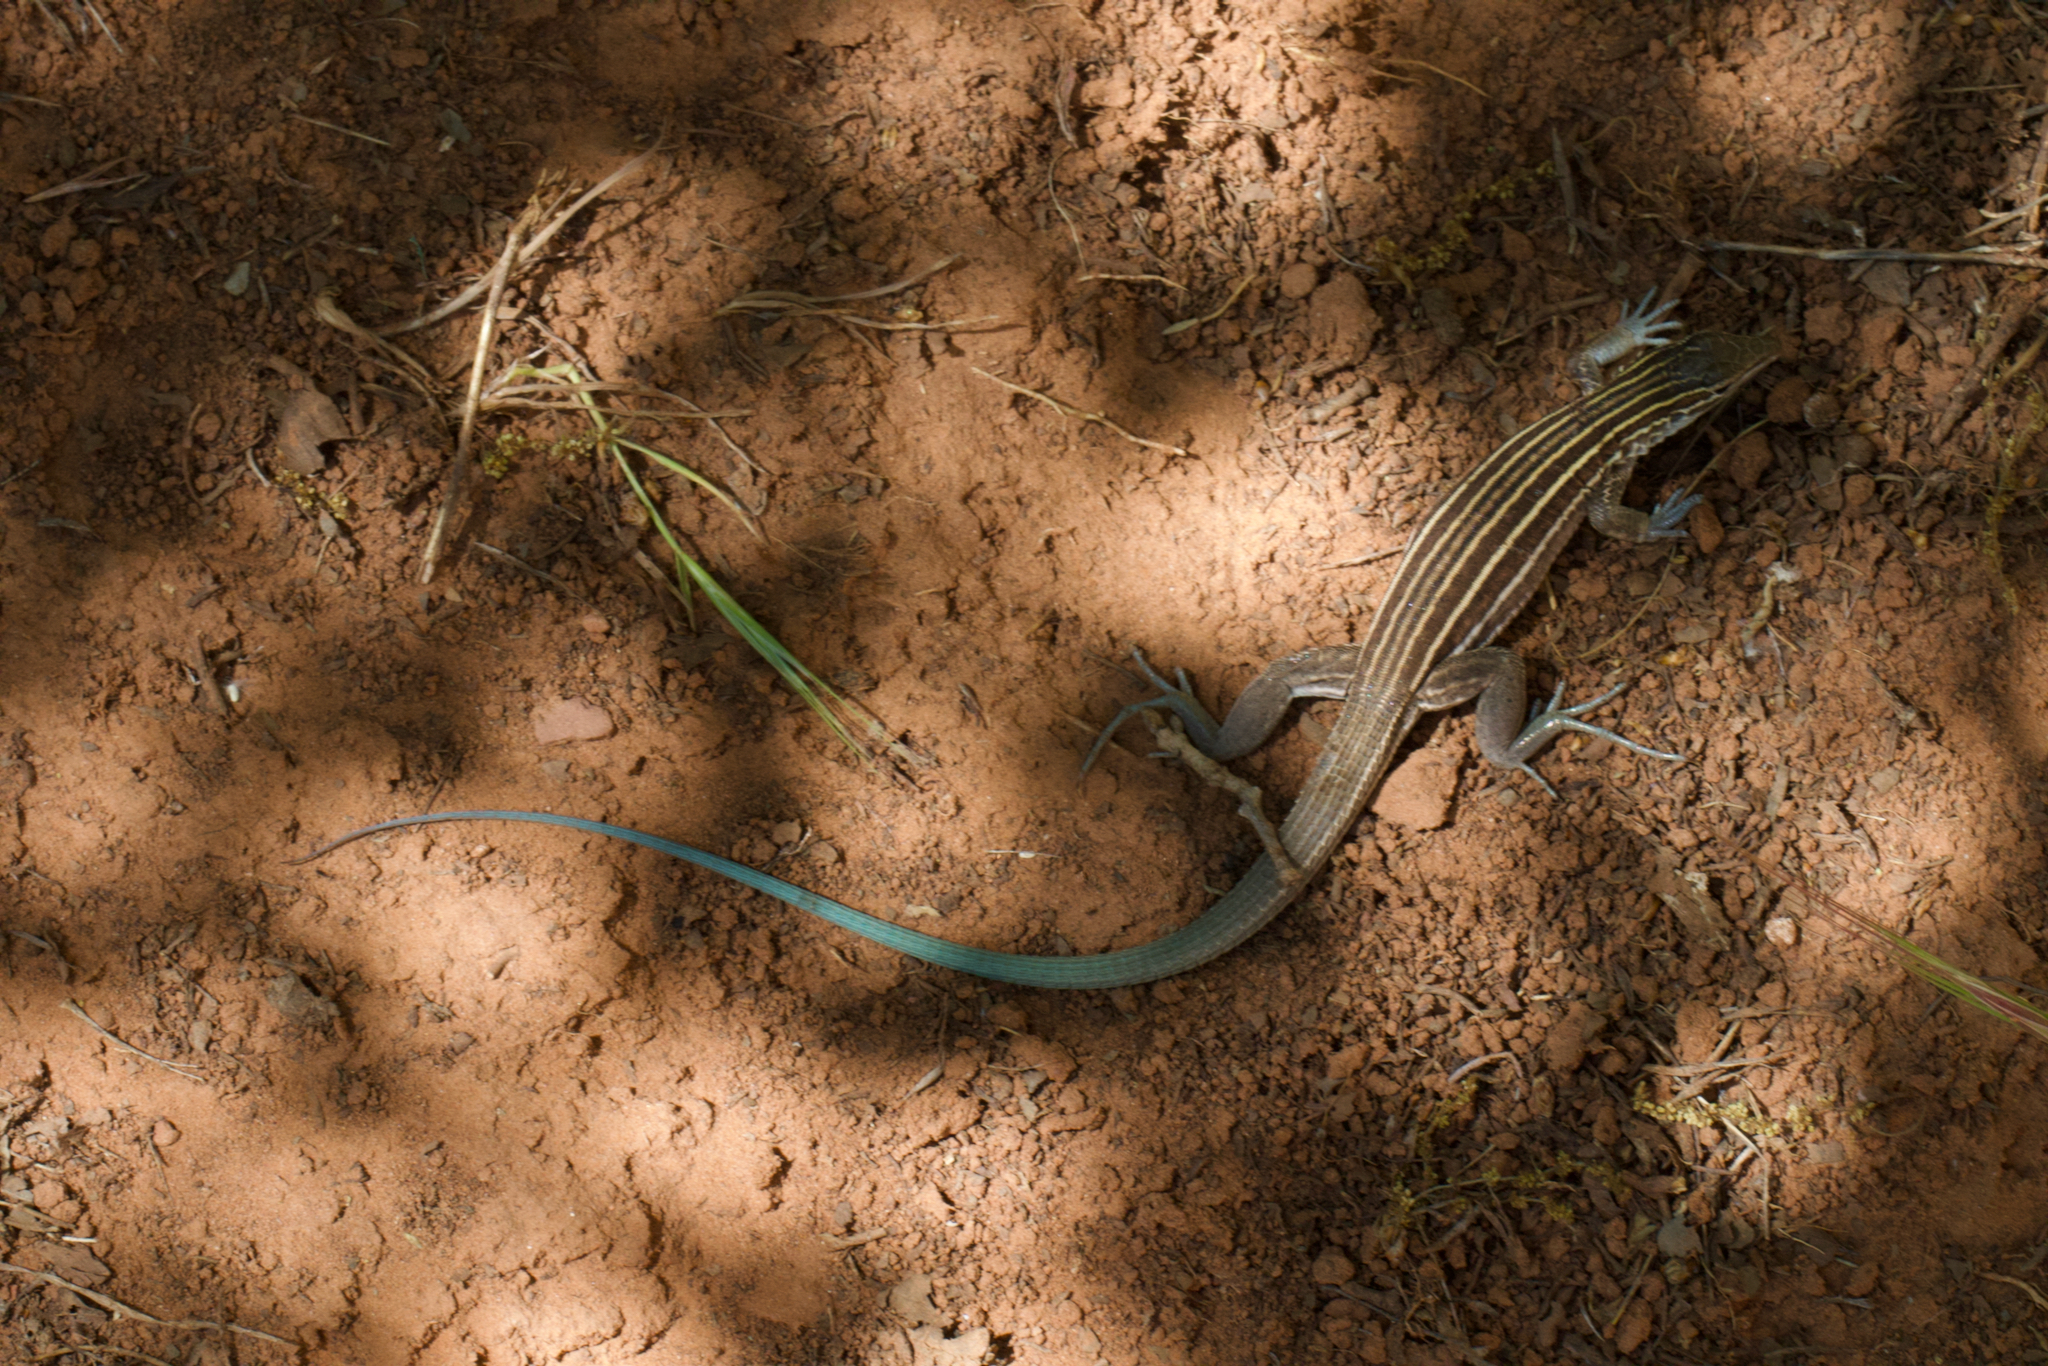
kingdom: Animalia
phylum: Chordata
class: Squamata
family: Teiidae
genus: Aspidoscelis
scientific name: Aspidoscelis velox
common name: Plateau striped whiptail
